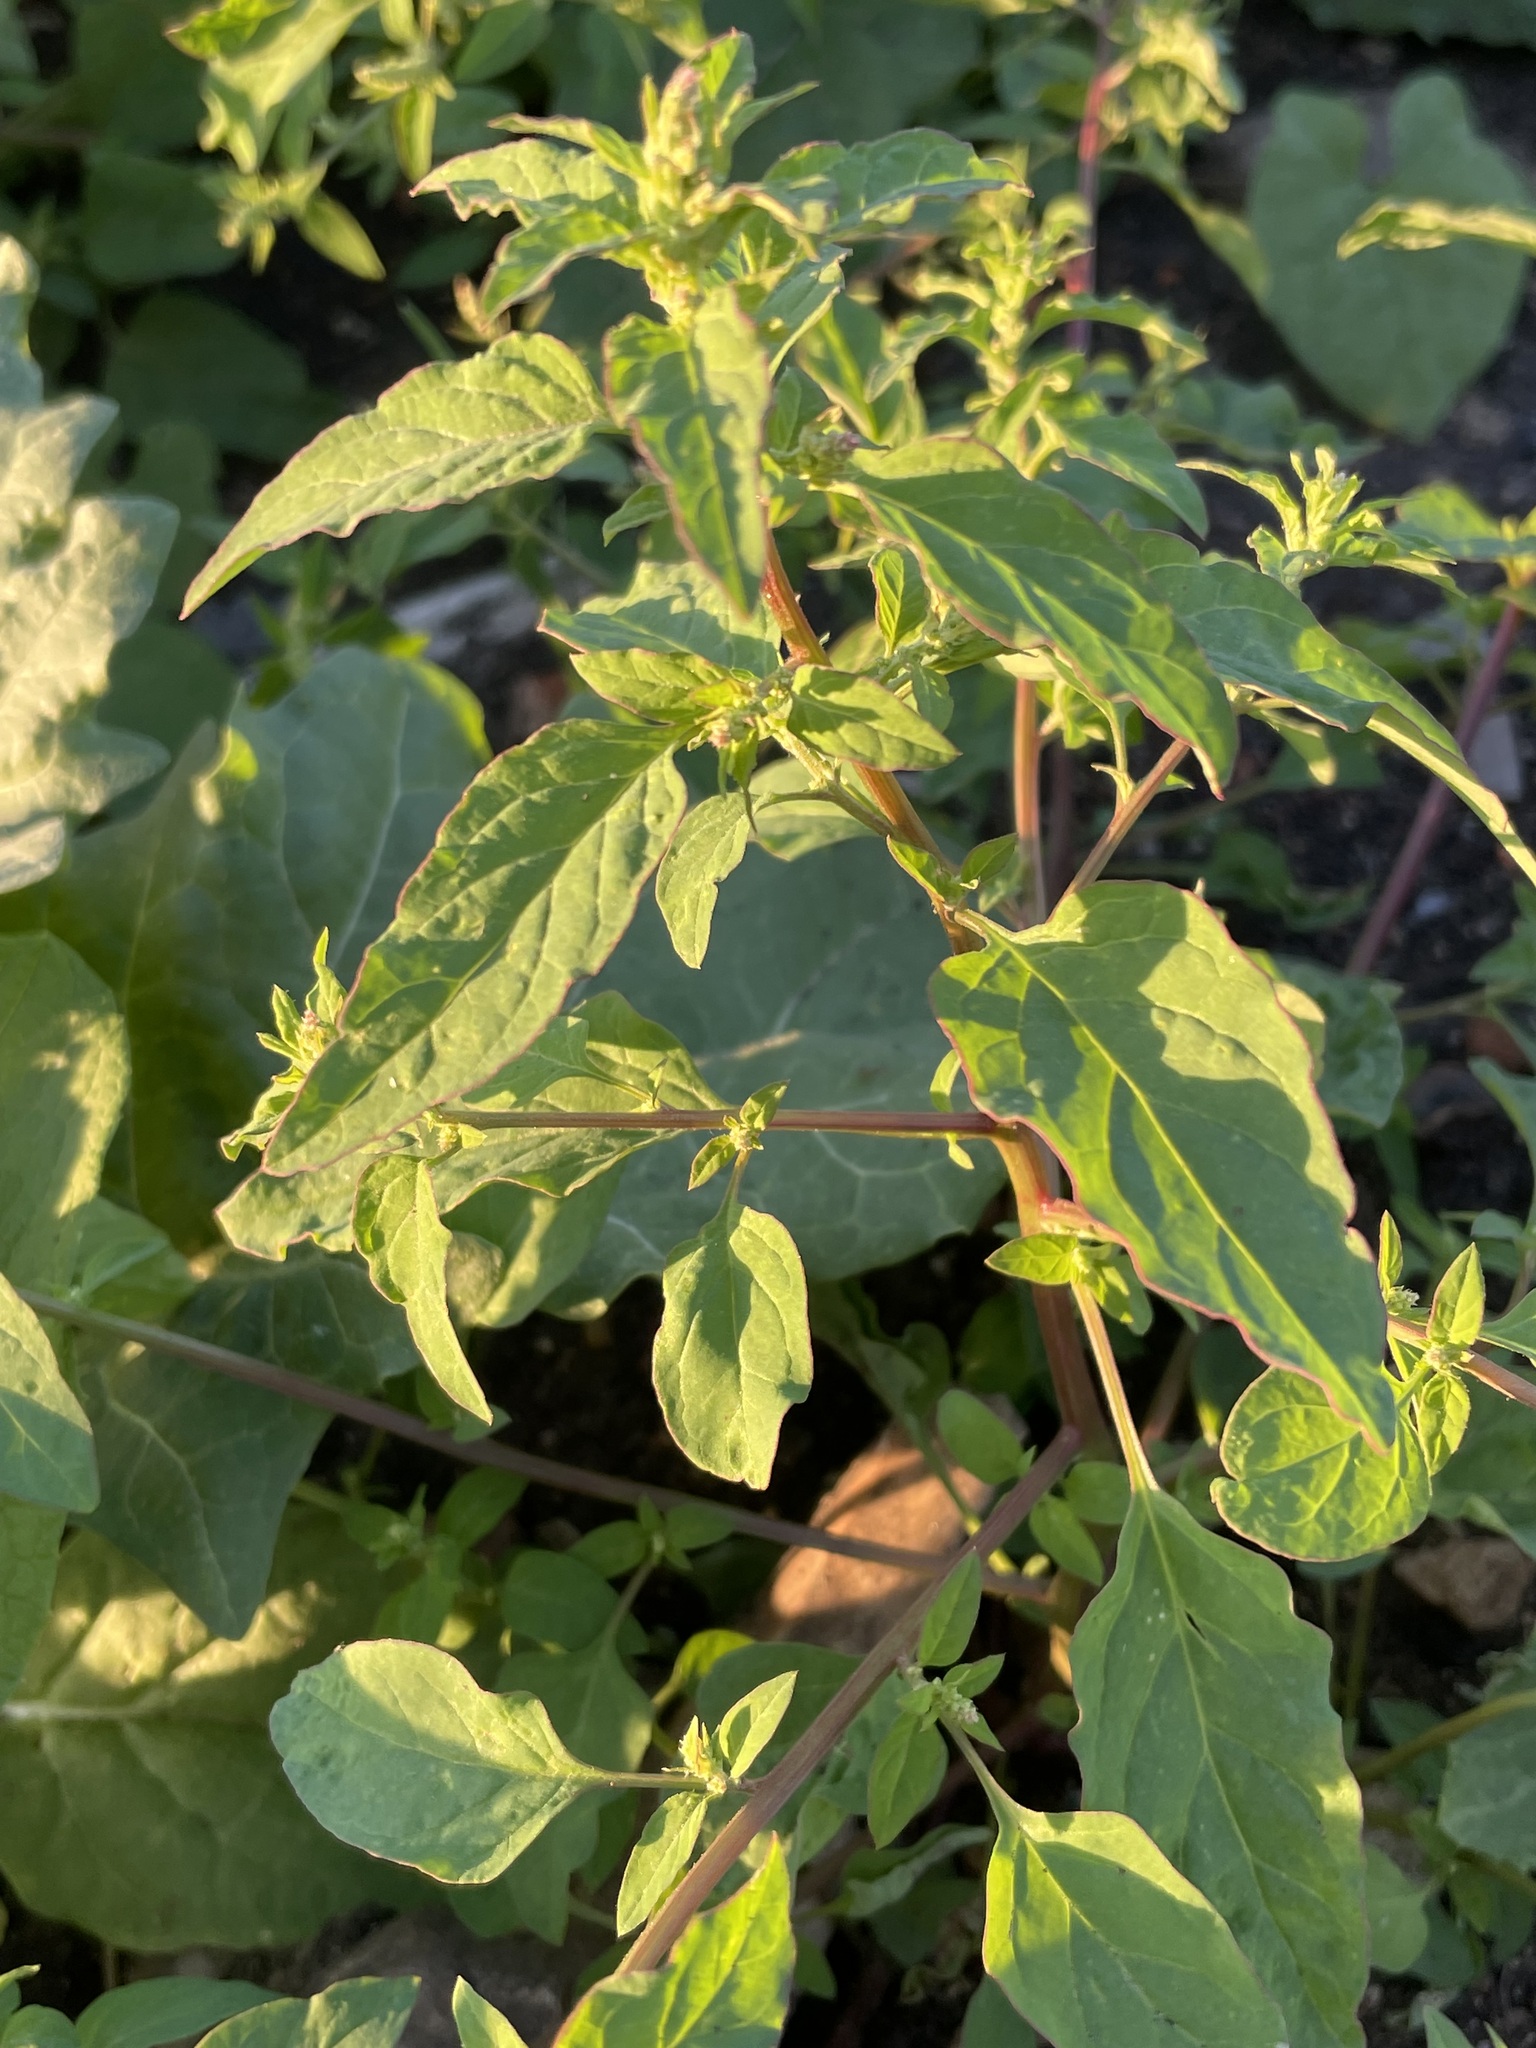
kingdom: Plantae
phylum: Tracheophyta
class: Magnoliopsida
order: Caryophyllales
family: Amaranthaceae
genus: Lipandra
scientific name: Lipandra polysperma
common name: Many-seed goosefoot
